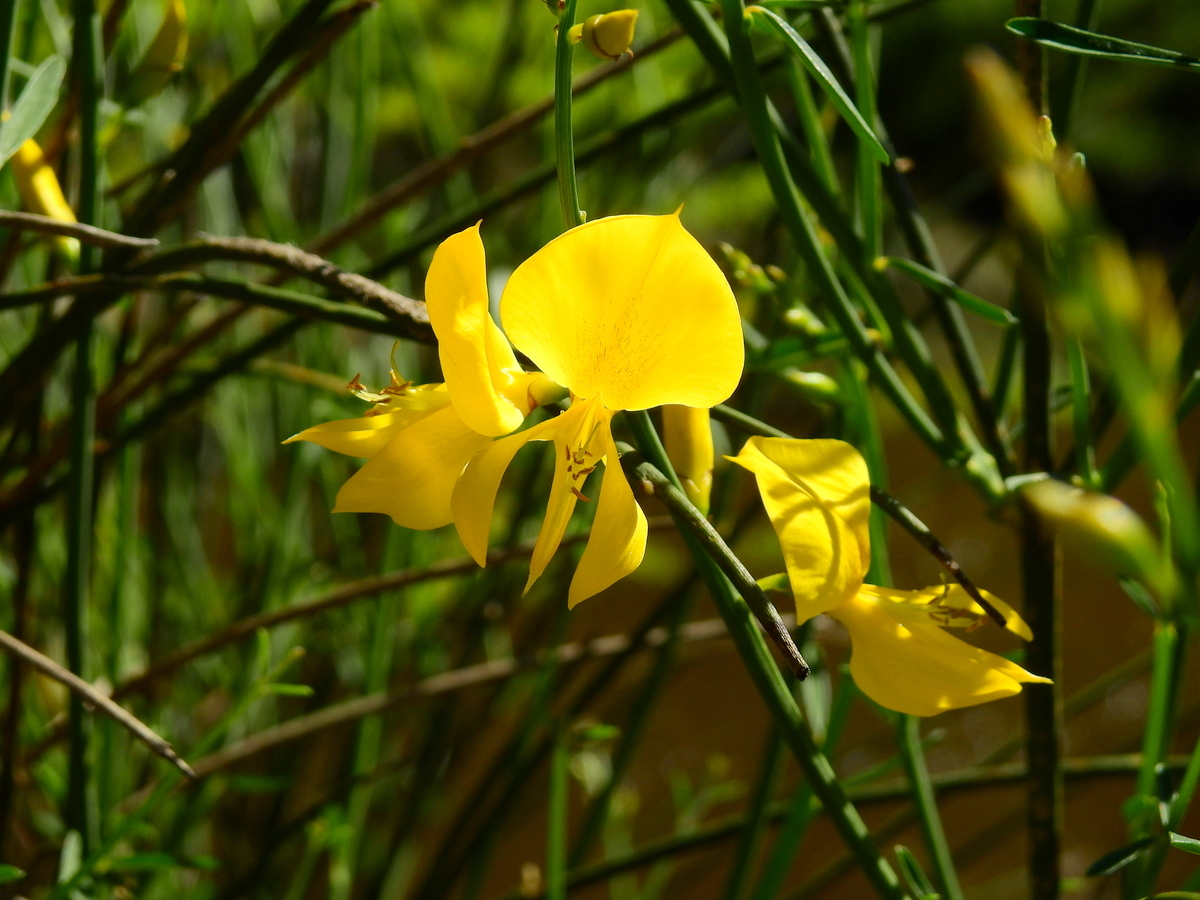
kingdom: Plantae
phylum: Tracheophyta
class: Magnoliopsida
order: Fabales
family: Fabaceae
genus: Spartium
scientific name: Spartium junceum
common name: Spanish broom
